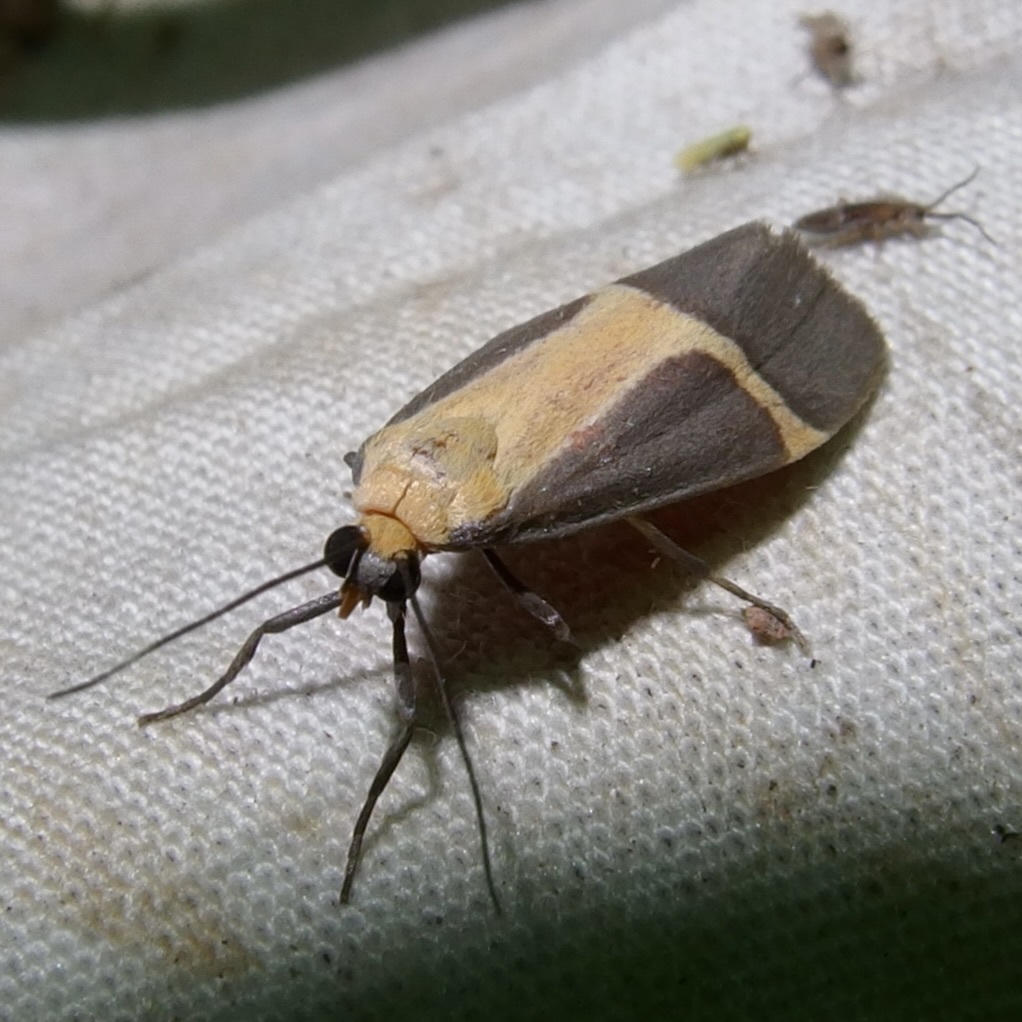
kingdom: Animalia
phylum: Arthropoda
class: Insecta
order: Lepidoptera
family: Erebidae
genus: Cisthene
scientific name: Cisthene angelus
